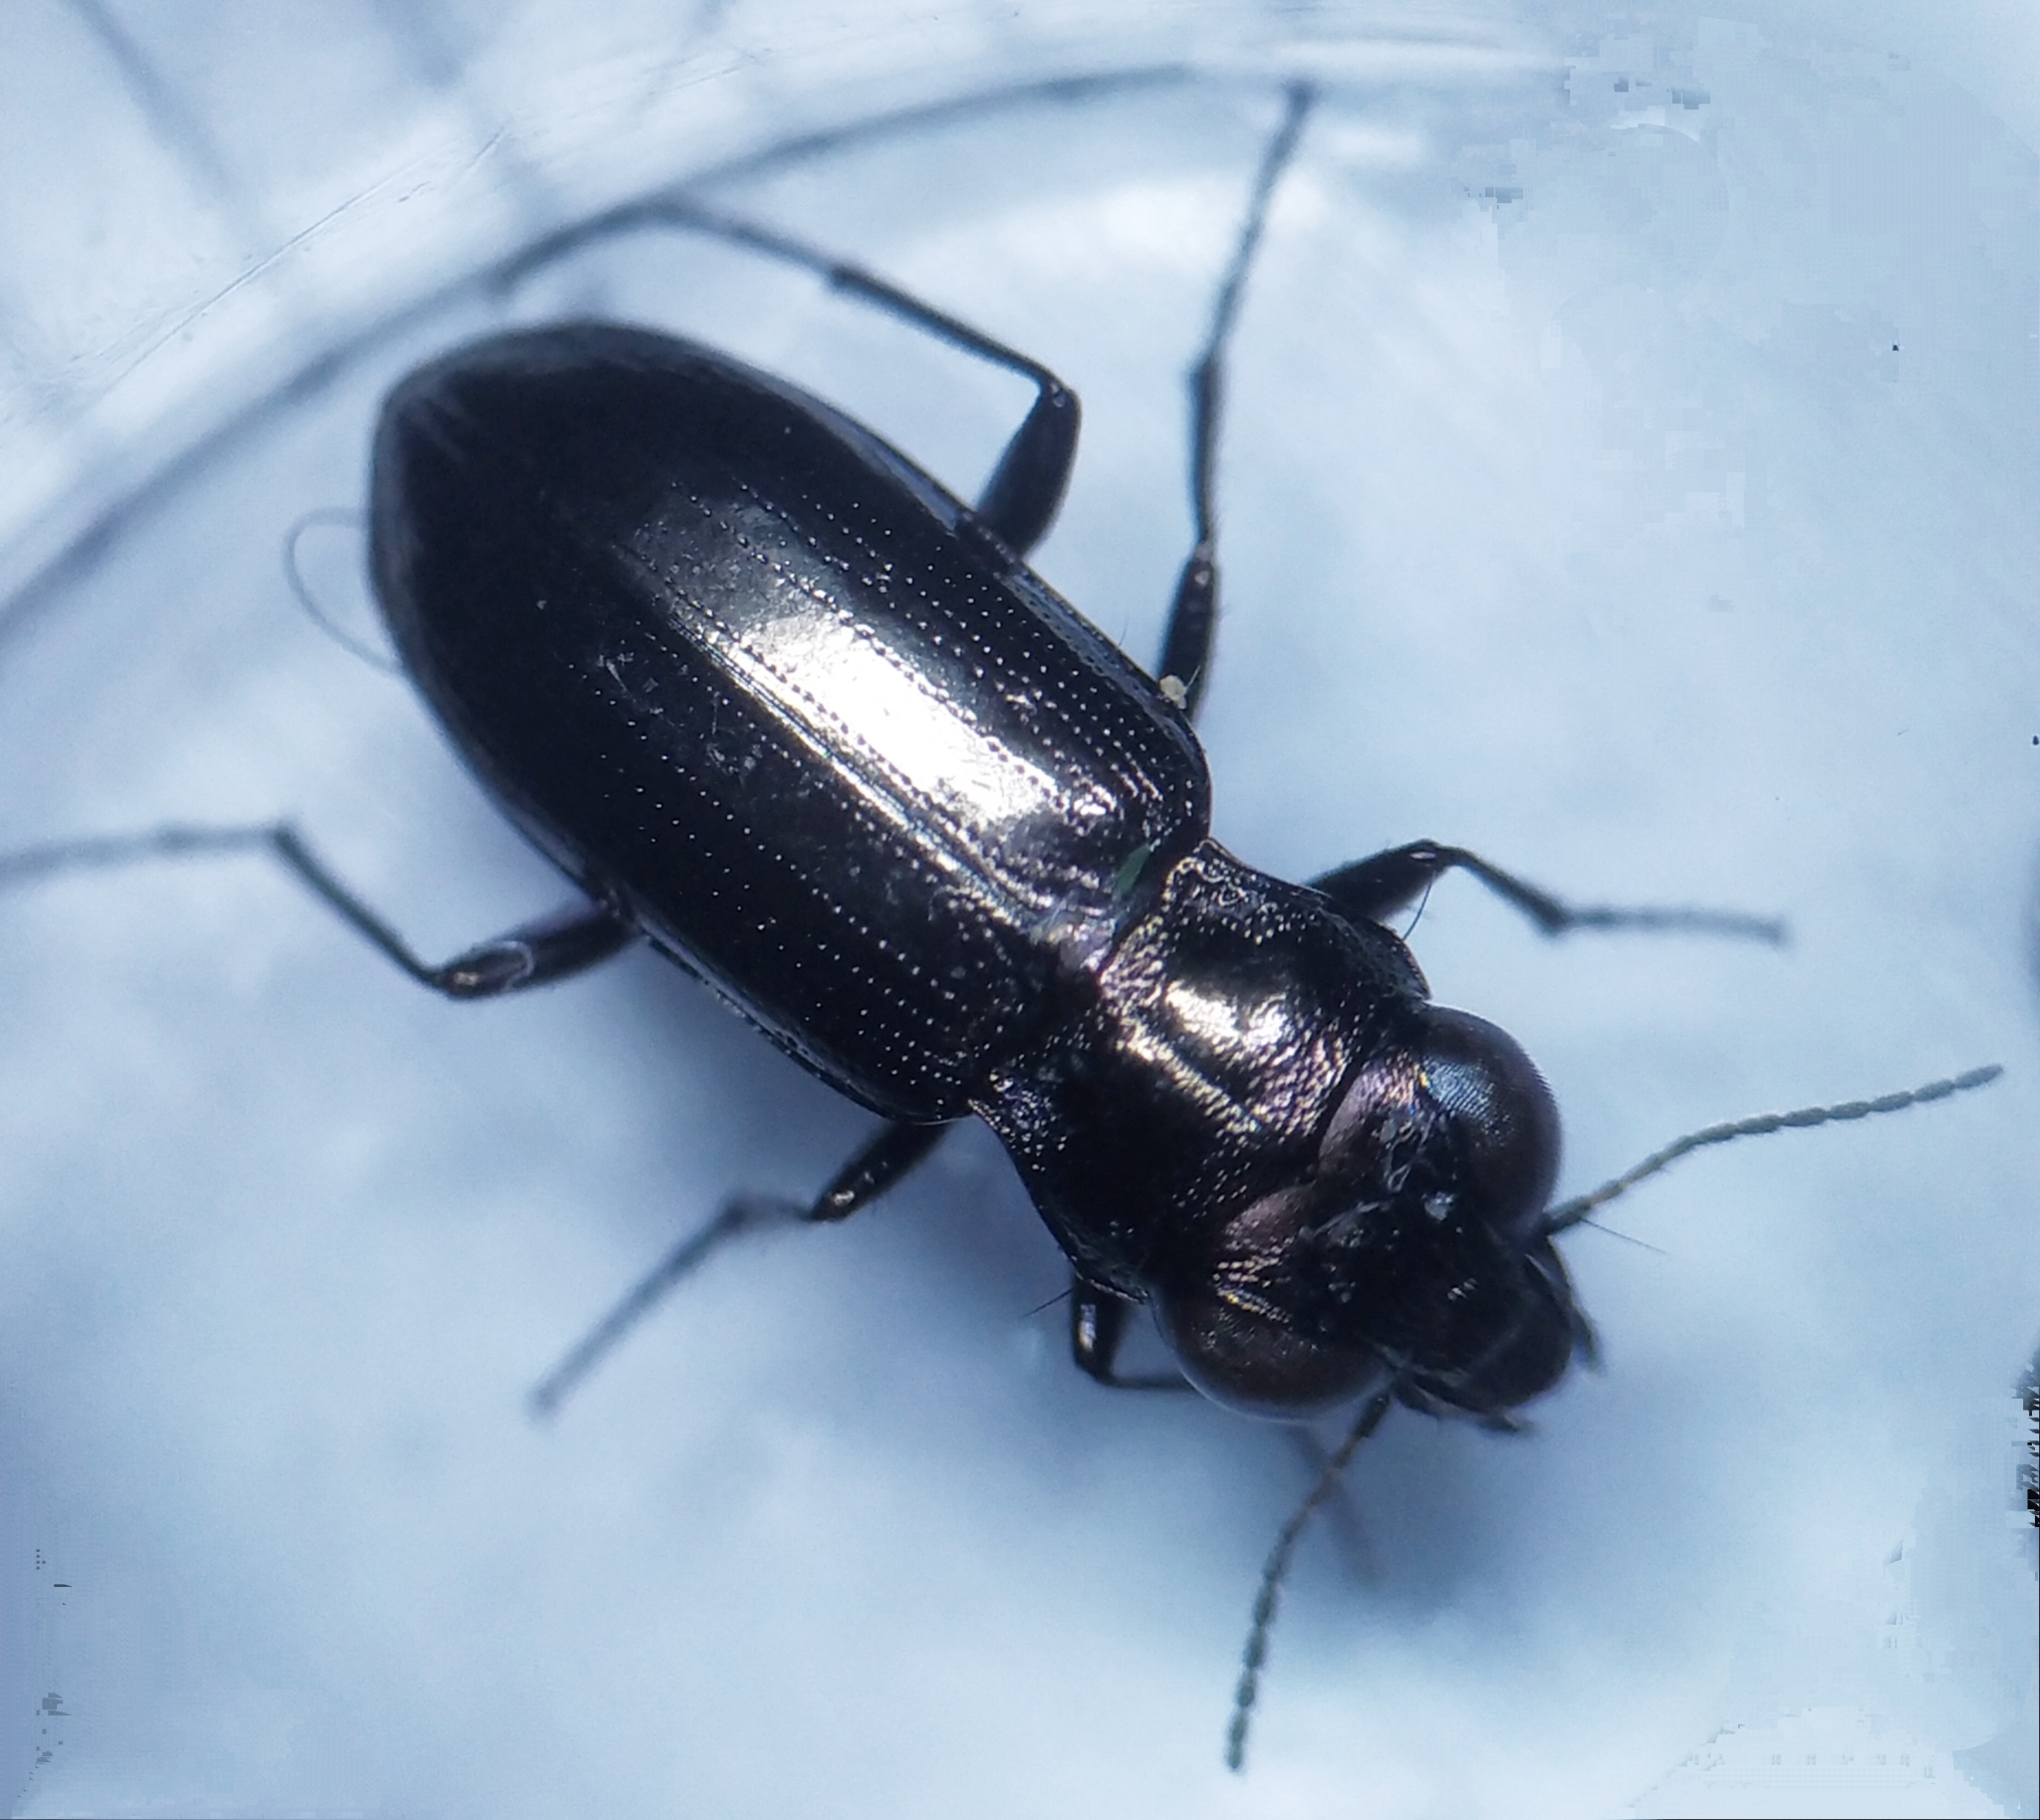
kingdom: Animalia
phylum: Arthropoda
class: Insecta
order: Coleoptera
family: Carabidae
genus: Notiophilus
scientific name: Notiophilus aquaticus
